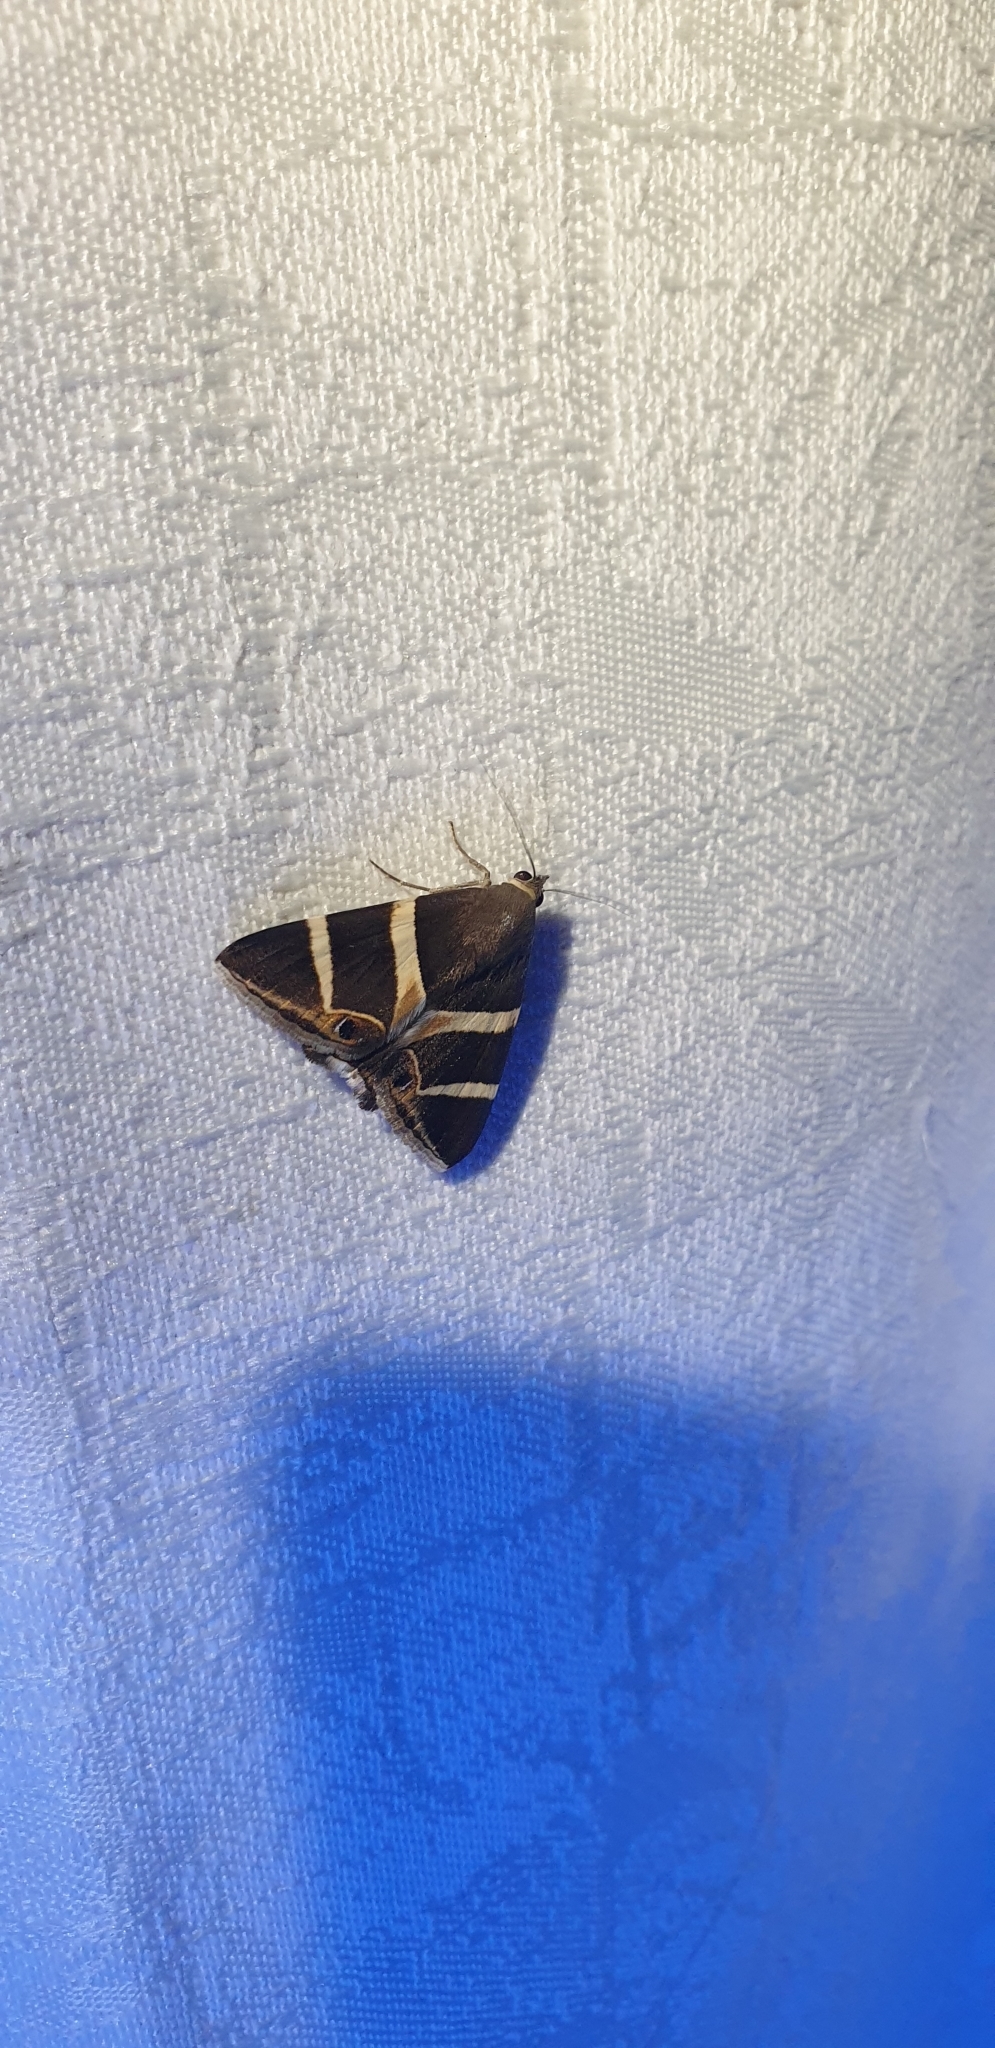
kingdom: Animalia
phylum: Arthropoda
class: Insecta
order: Lepidoptera
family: Erebidae
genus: Grammodes
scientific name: Grammodes oculicola
